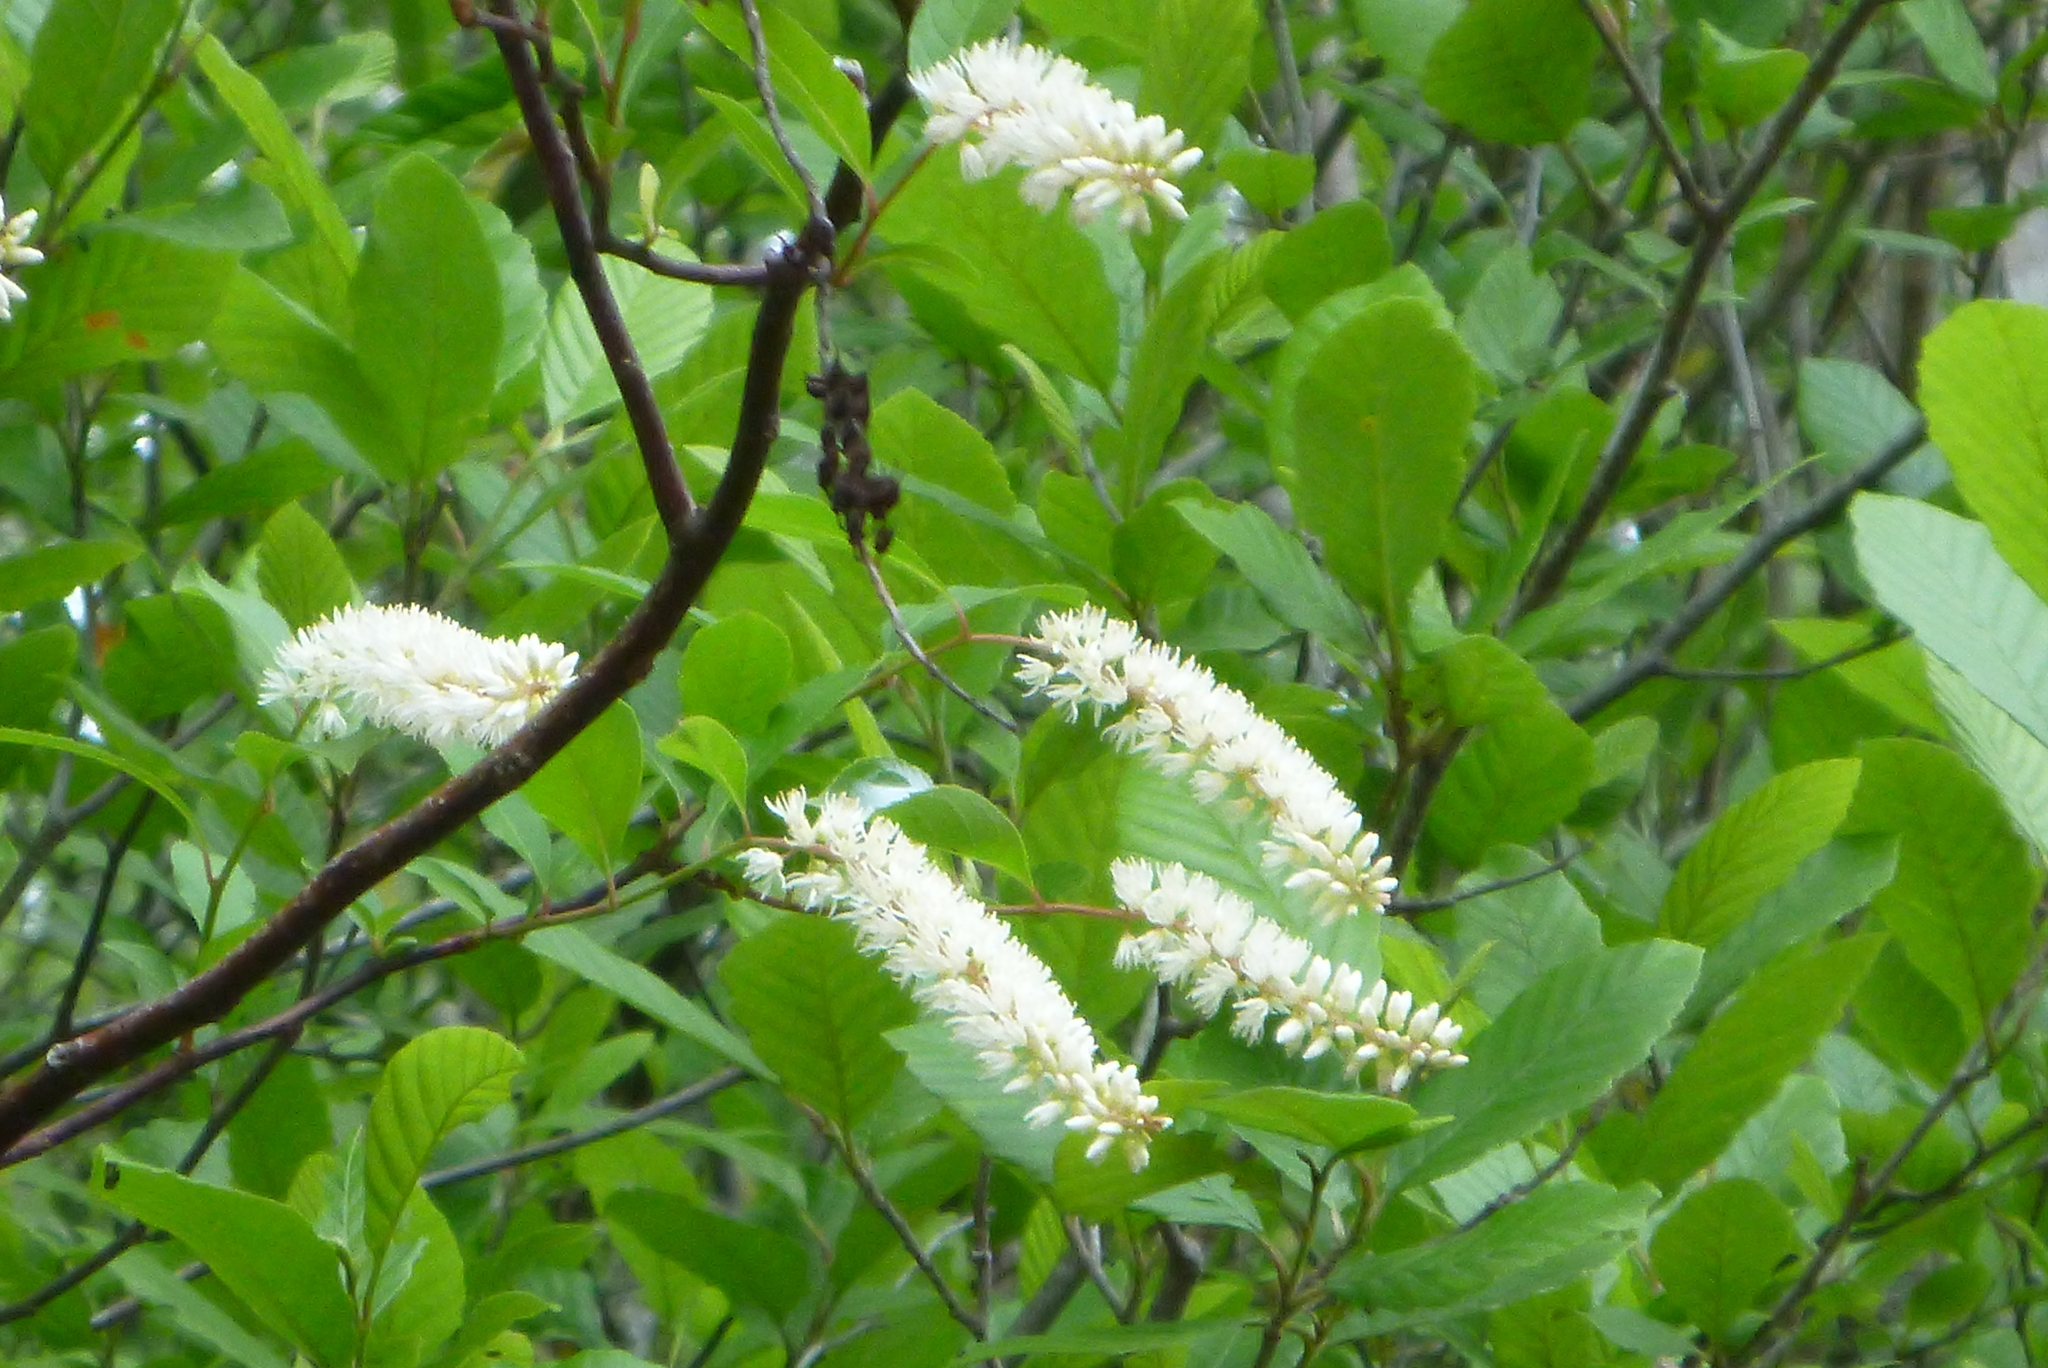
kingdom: Plantae
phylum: Tracheophyta
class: Magnoliopsida
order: Saxifragales
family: Iteaceae
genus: Itea
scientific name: Itea virginica
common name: Sweetspire
